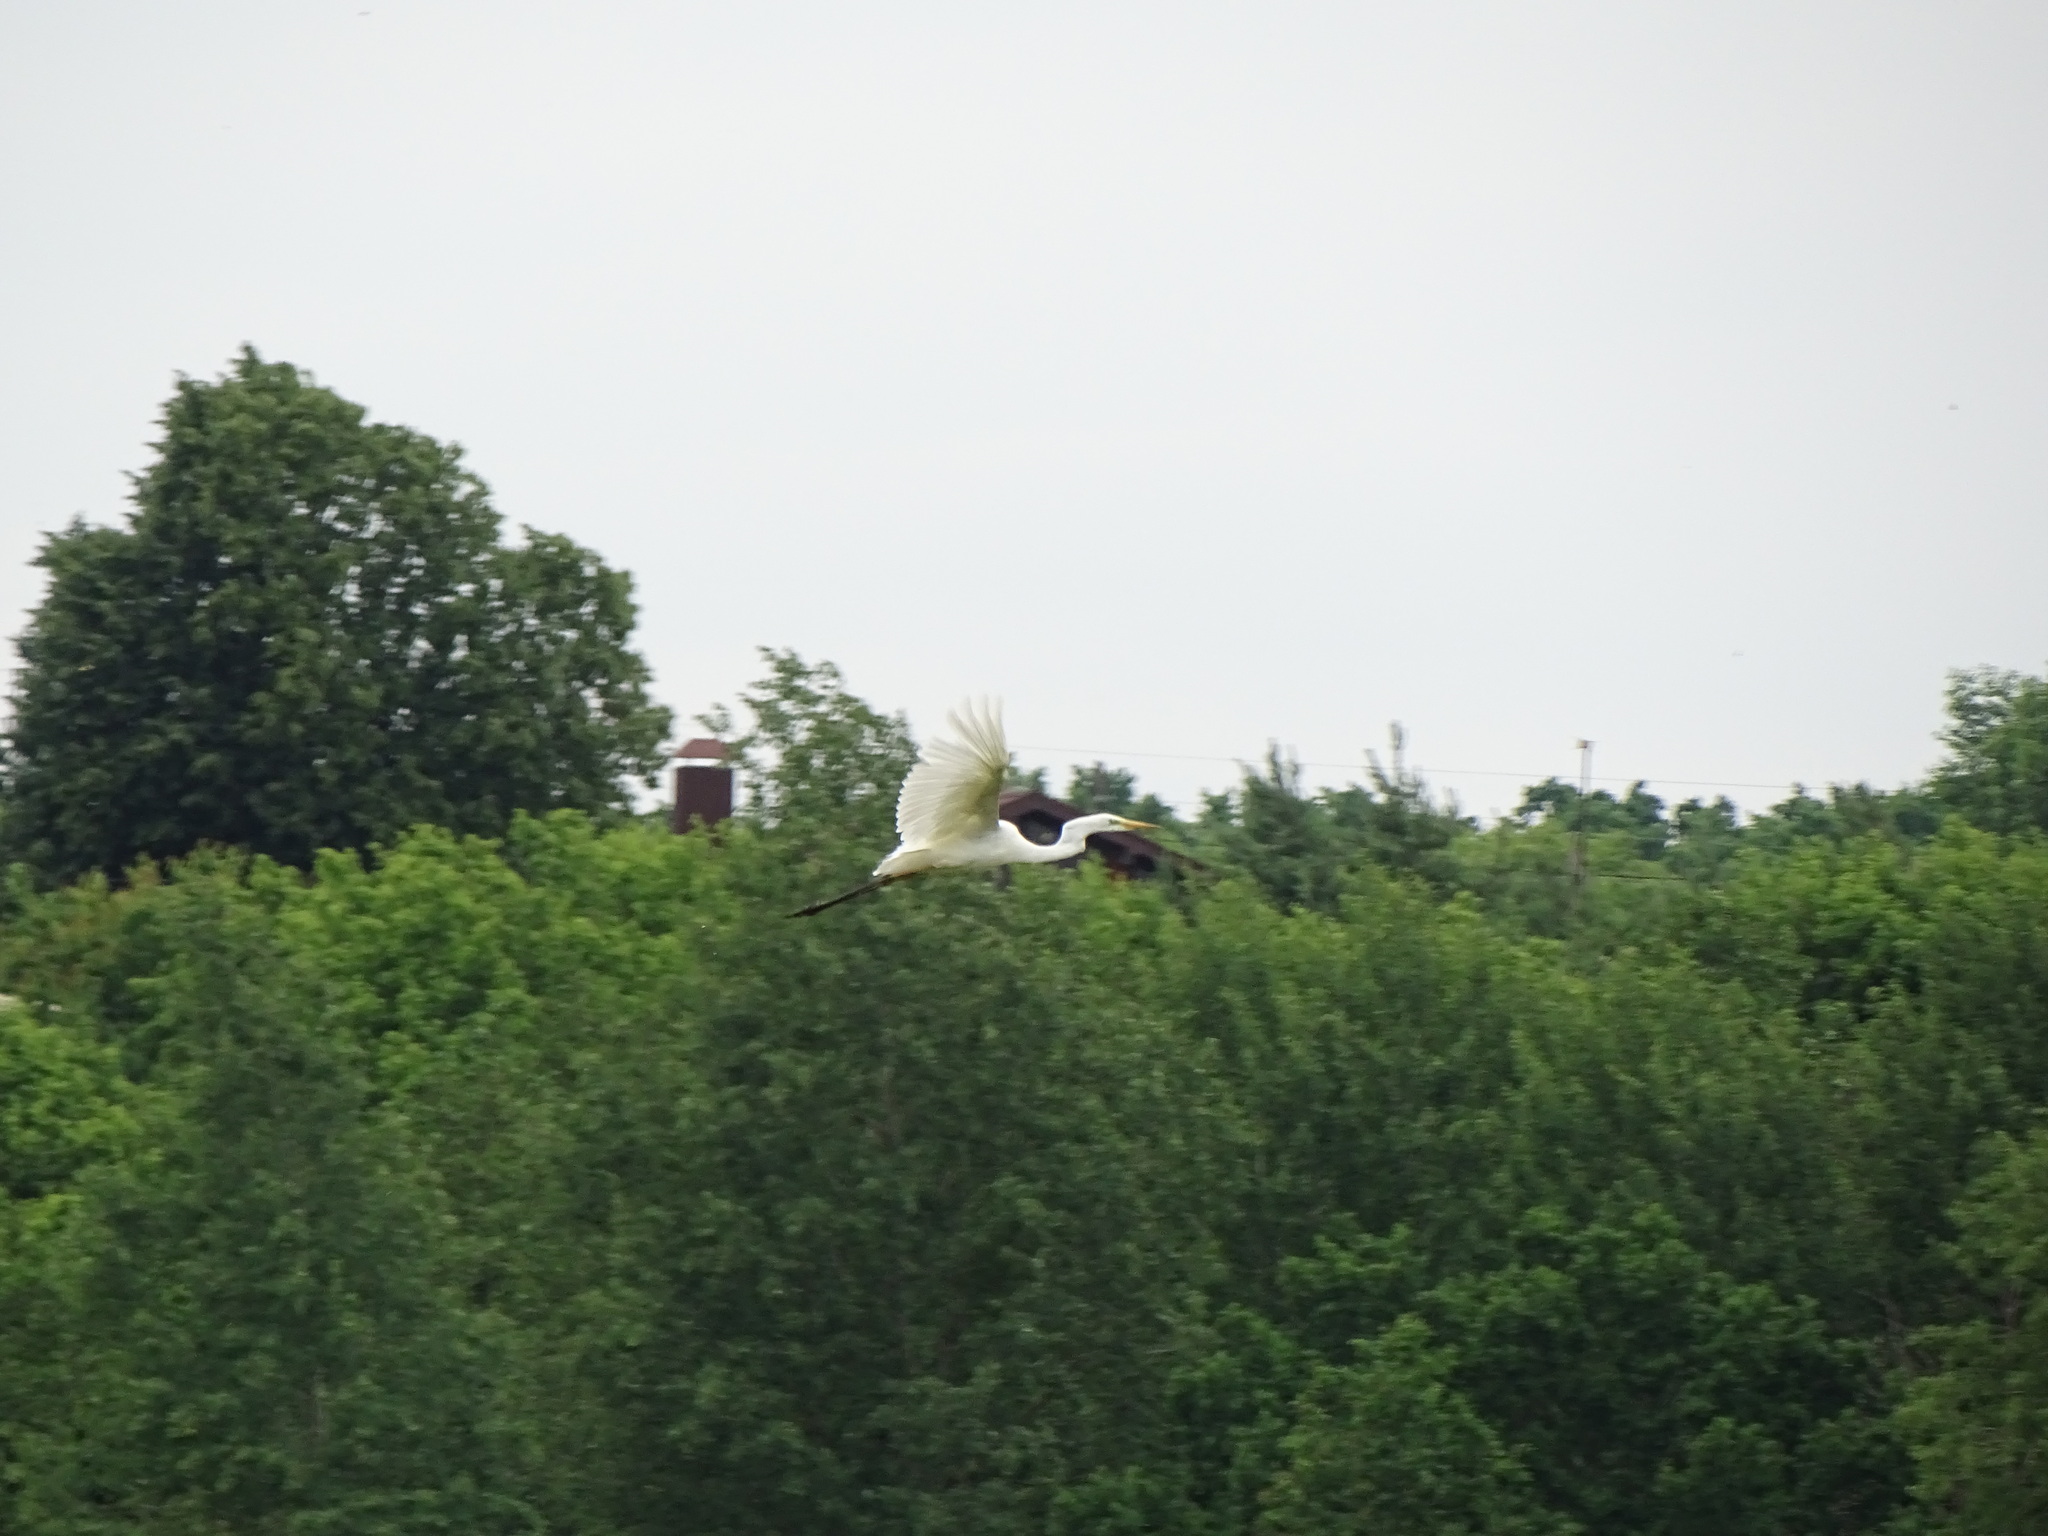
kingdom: Animalia
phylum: Chordata
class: Aves
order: Pelecaniformes
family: Ardeidae
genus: Ardea
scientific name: Ardea alba
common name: Great egret
